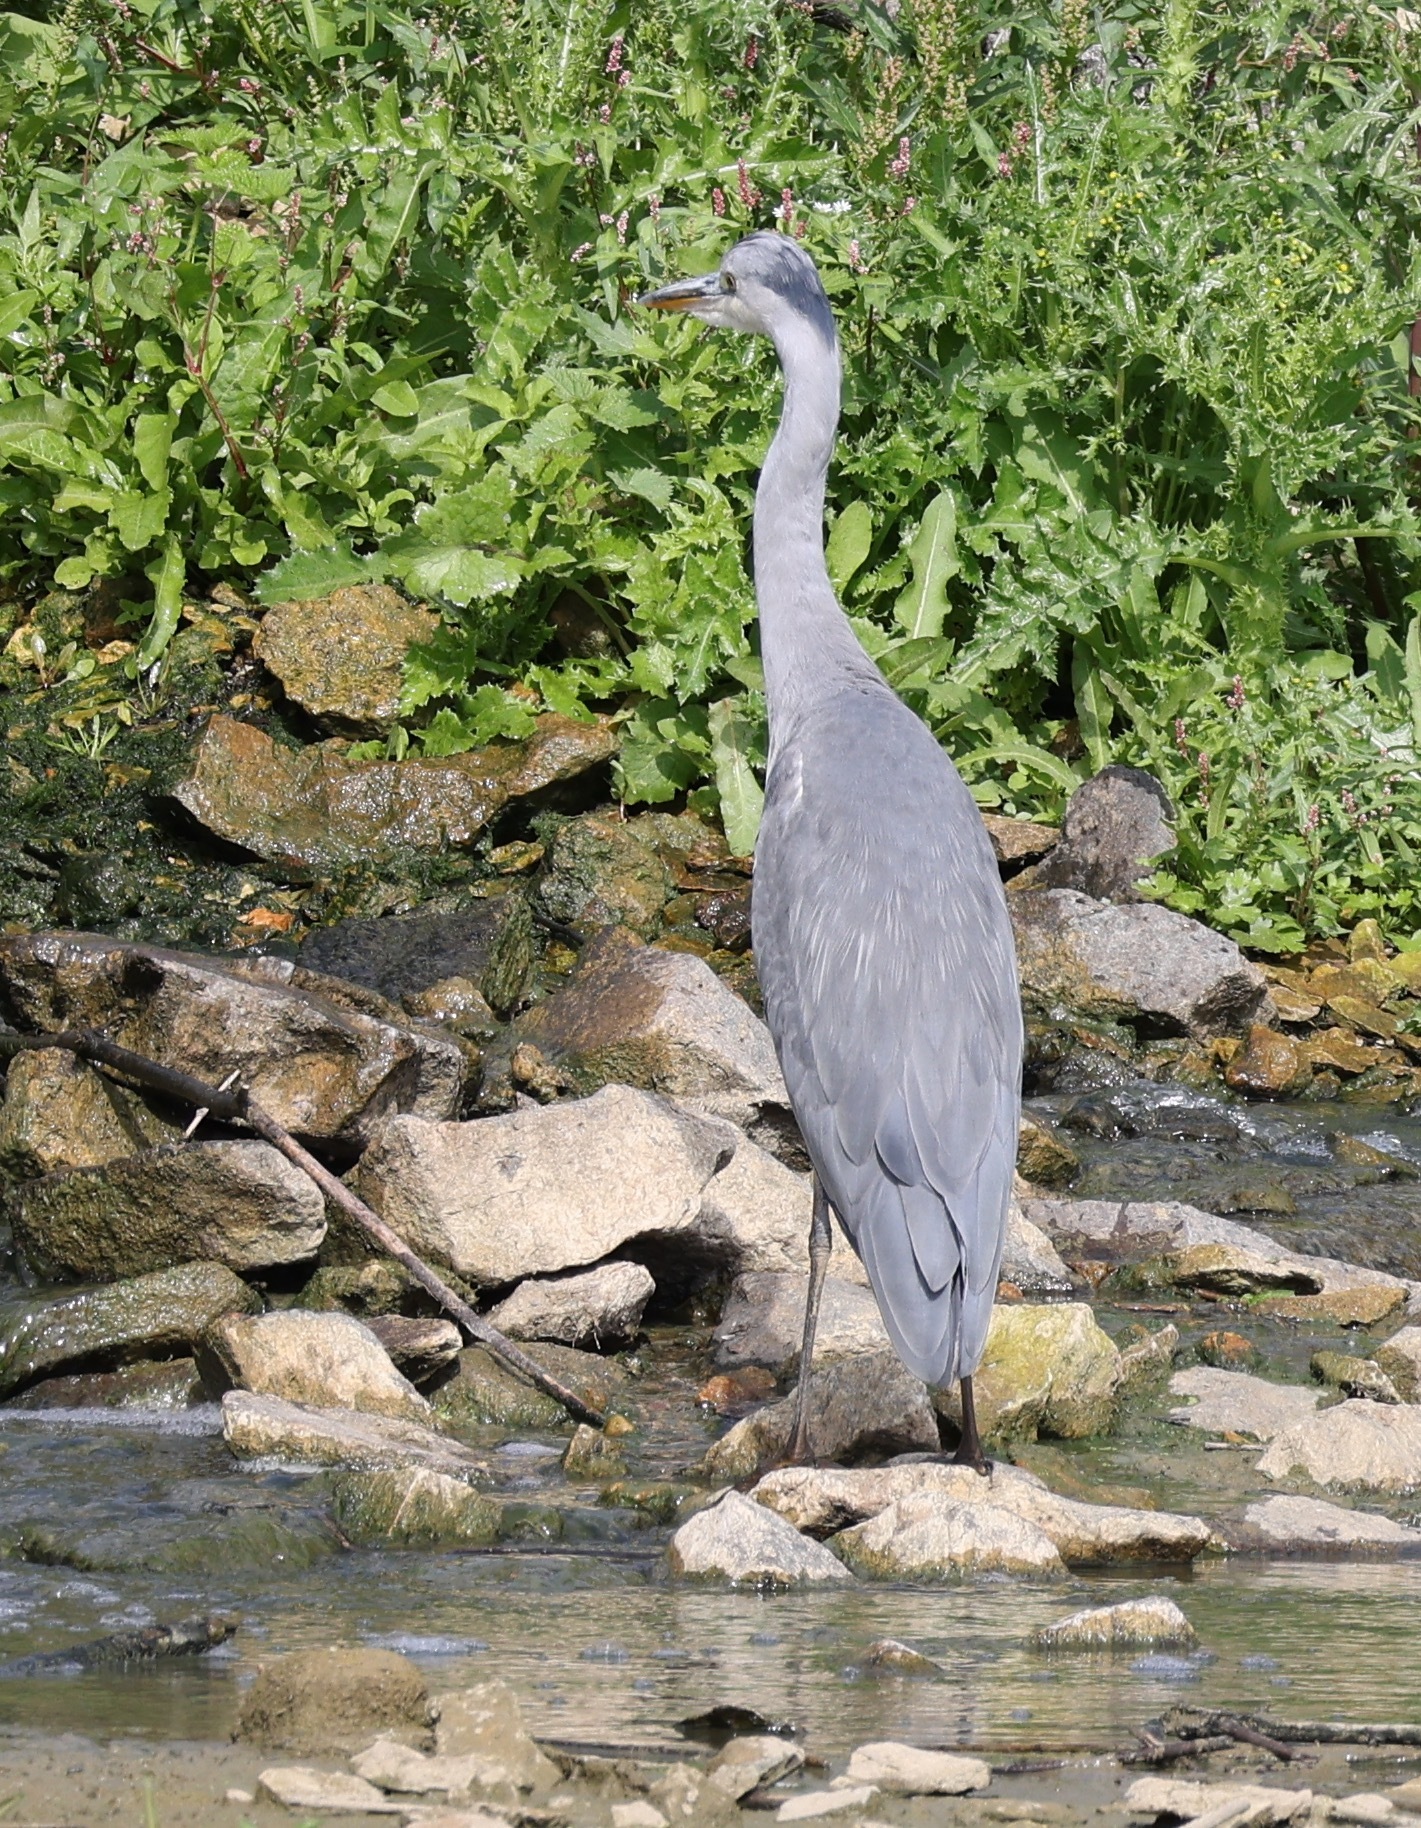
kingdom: Animalia
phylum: Chordata
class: Aves
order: Pelecaniformes
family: Ardeidae
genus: Ardea
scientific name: Ardea cinerea
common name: Grey heron
